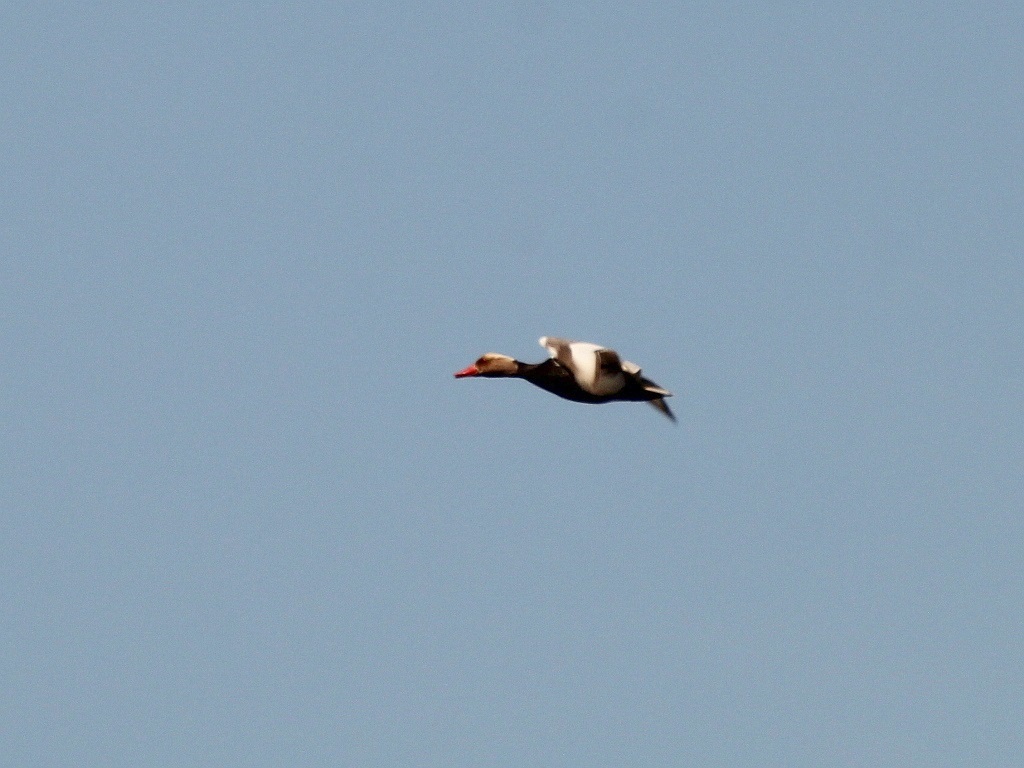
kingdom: Animalia
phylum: Chordata
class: Aves
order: Anseriformes
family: Anatidae
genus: Netta
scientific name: Netta rufina
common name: Red-crested pochard
